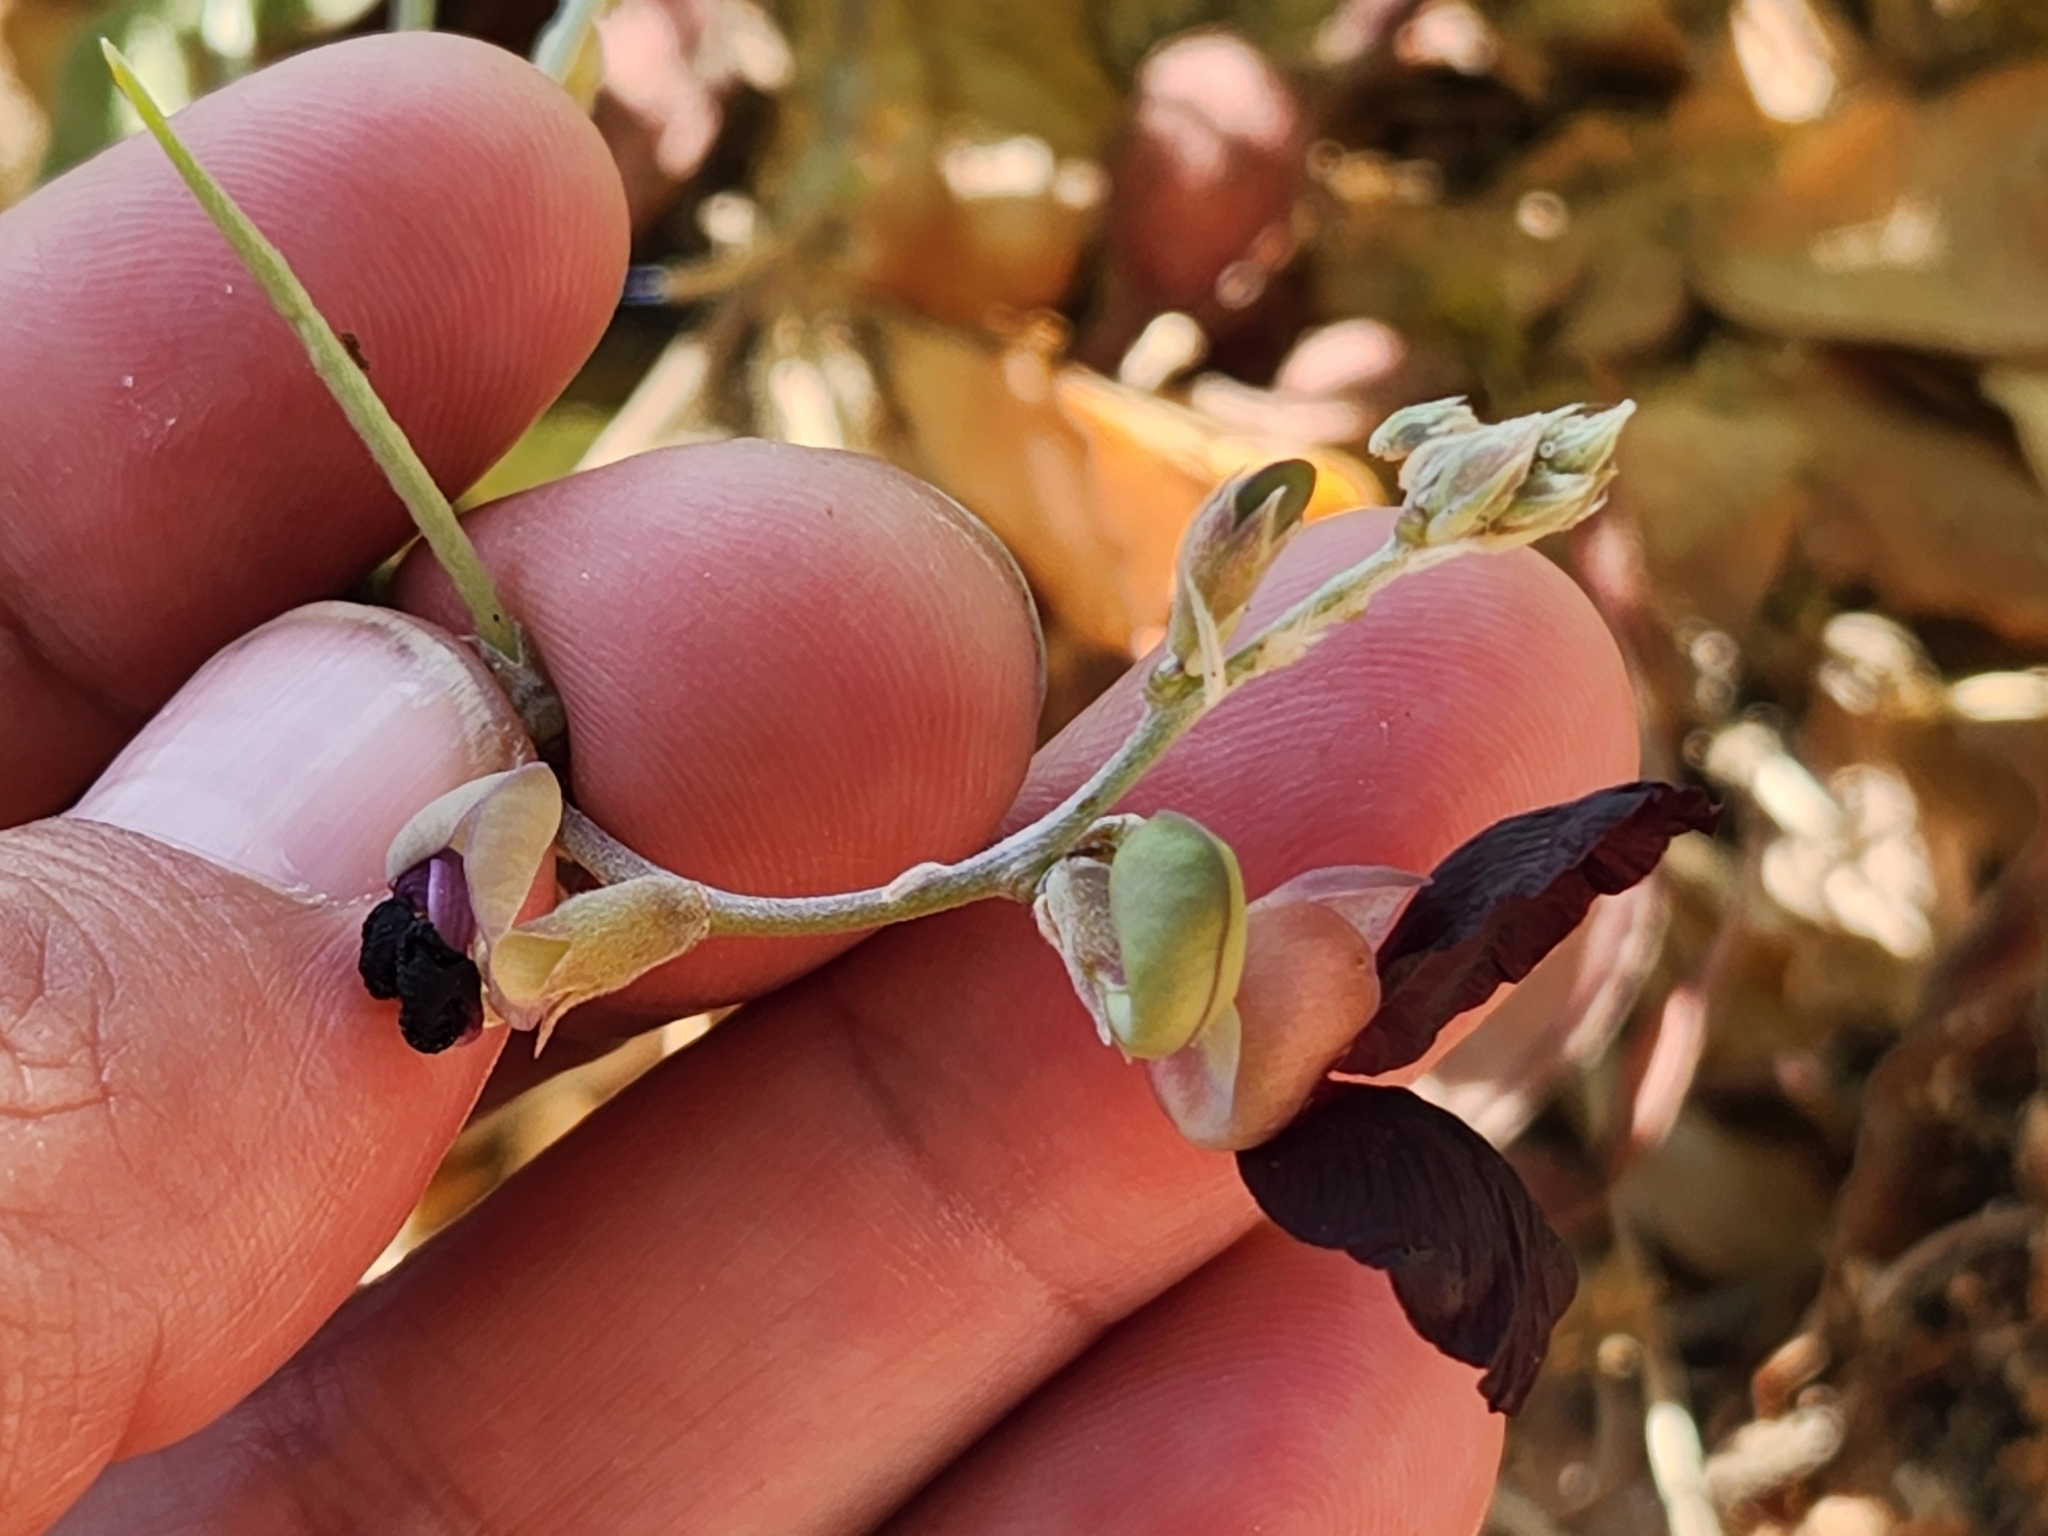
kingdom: Plantae
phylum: Tracheophyta
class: Magnoliopsida
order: Fabales
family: Fabaceae
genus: Macroptilium
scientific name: Macroptilium atropurpureum
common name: Purple bushbean
